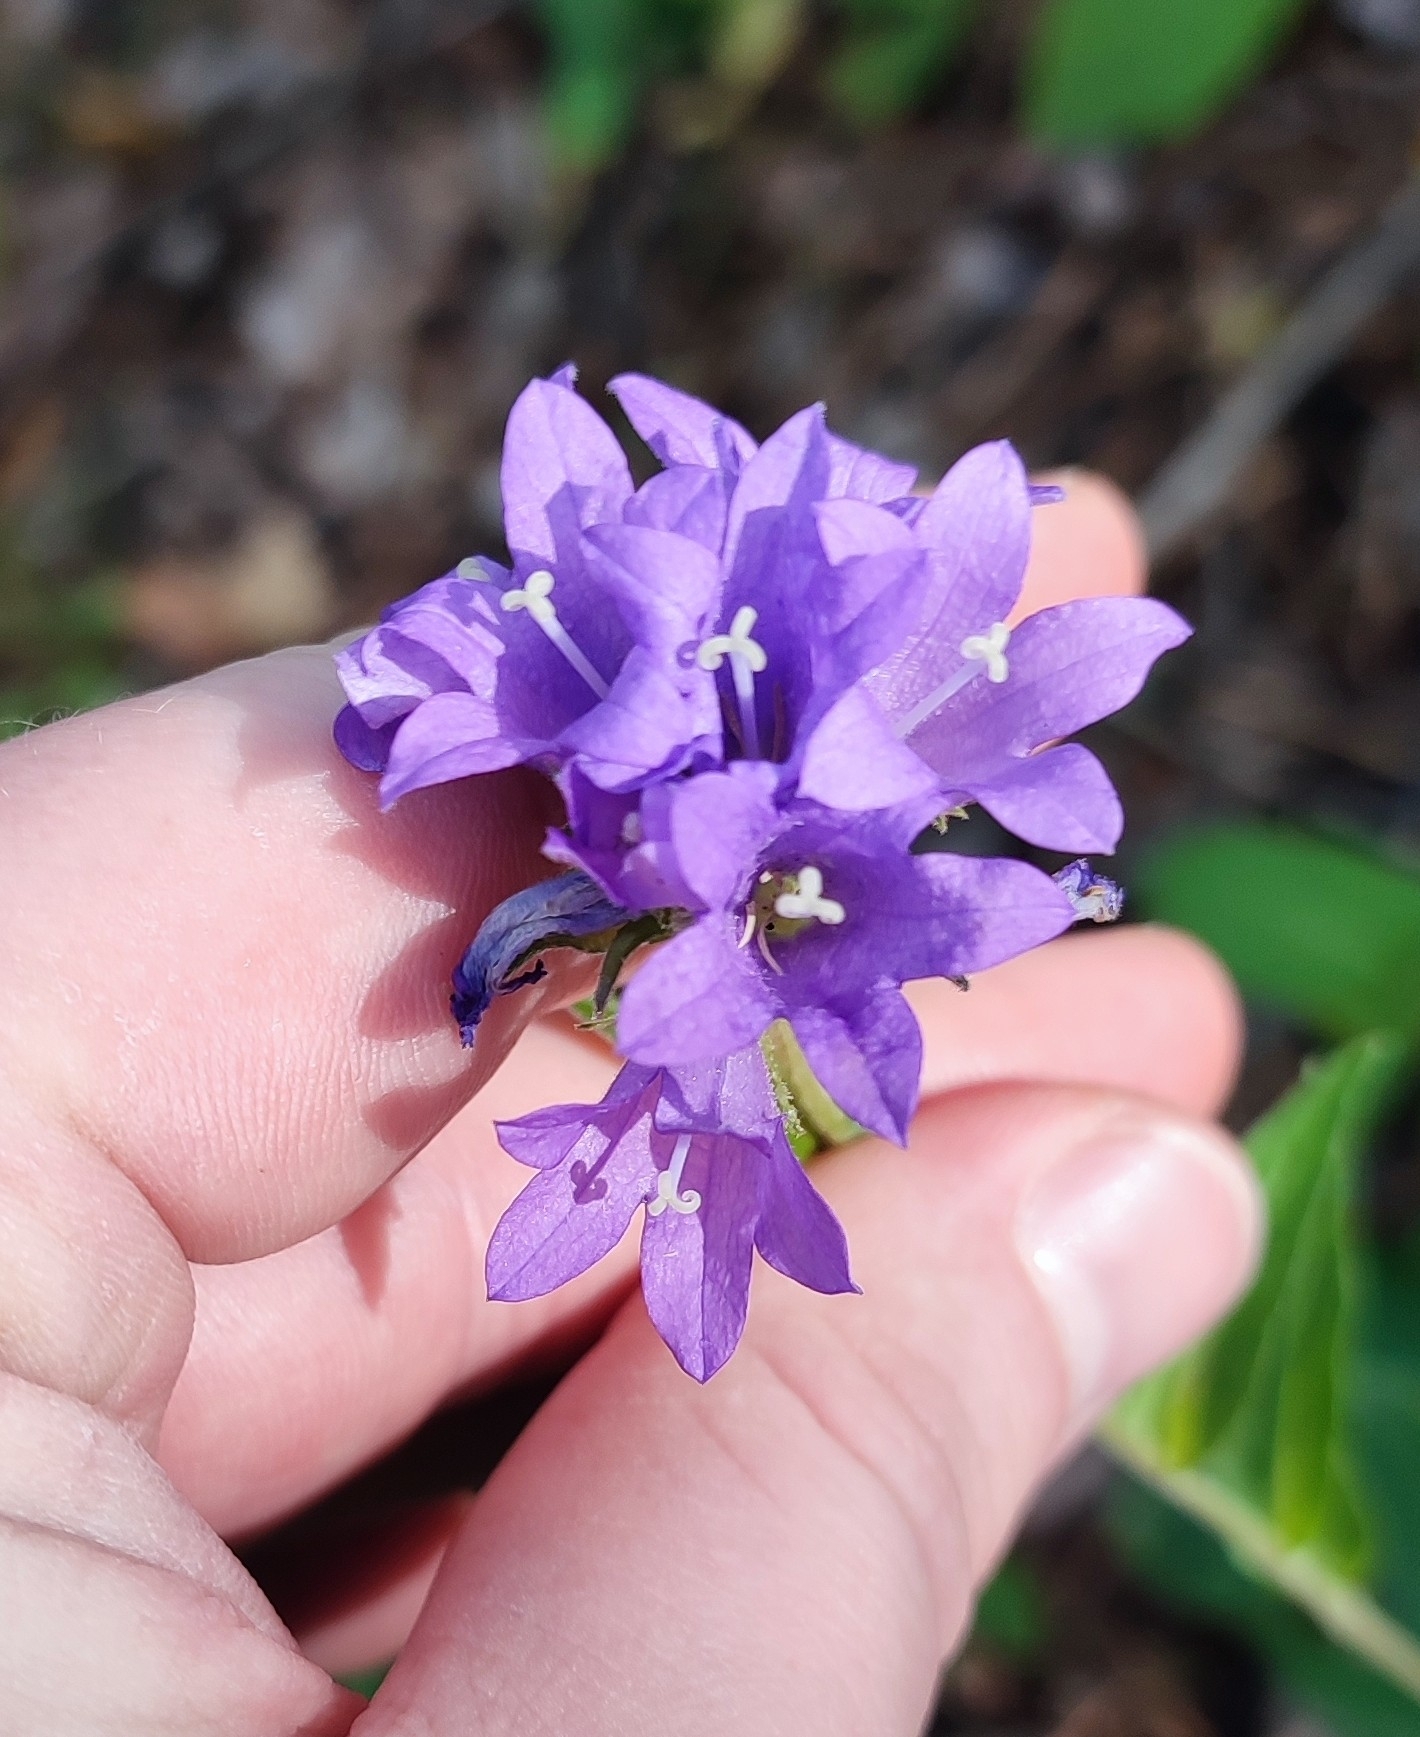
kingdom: Plantae
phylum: Tracheophyta
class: Magnoliopsida
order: Asterales
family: Campanulaceae
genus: Campanula
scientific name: Campanula glomerata
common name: Clustered bellflower
